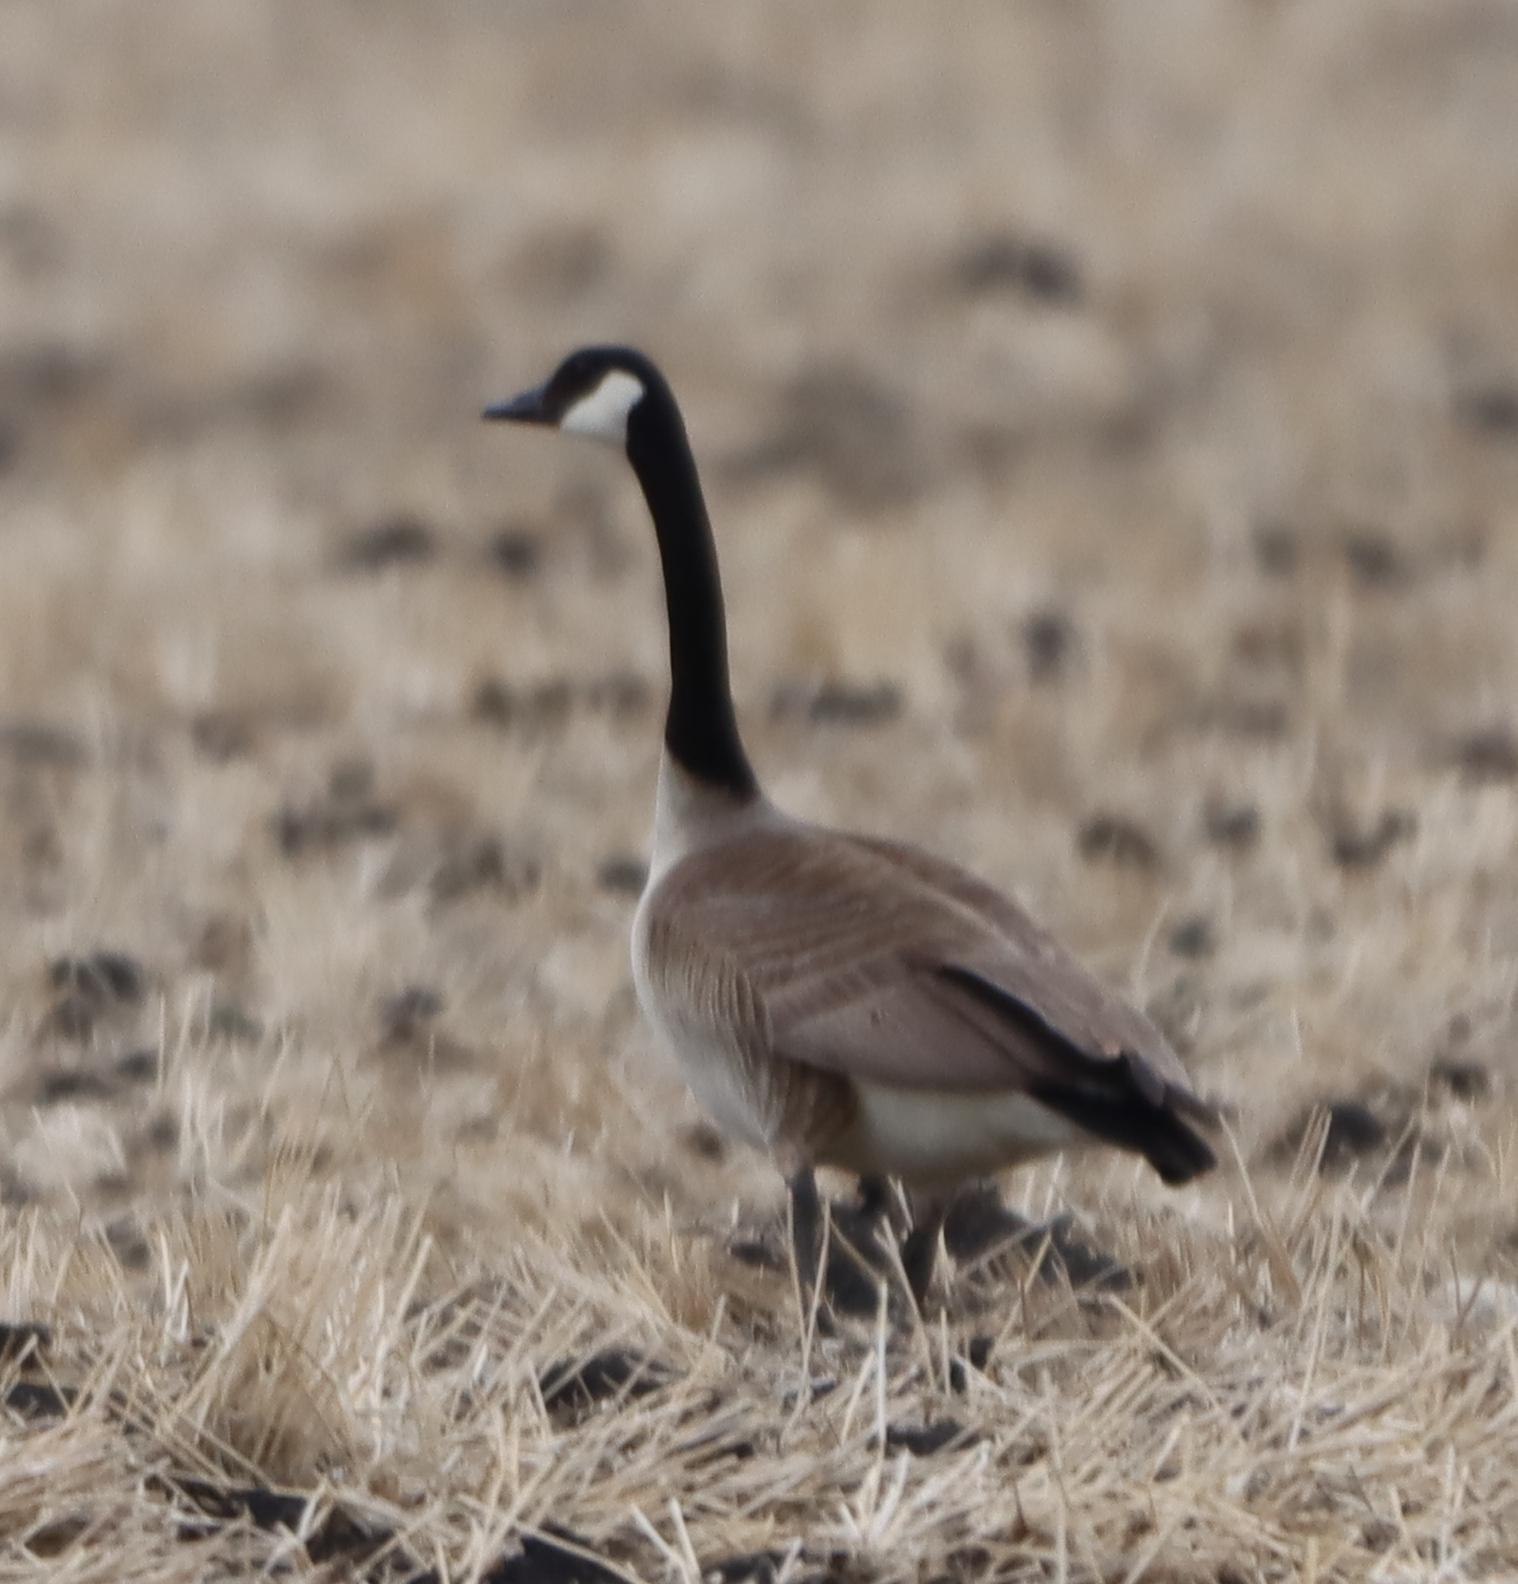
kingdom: Animalia
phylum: Chordata
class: Aves
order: Anseriformes
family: Anatidae
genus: Branta
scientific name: Branta canadensis
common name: Canada goose
